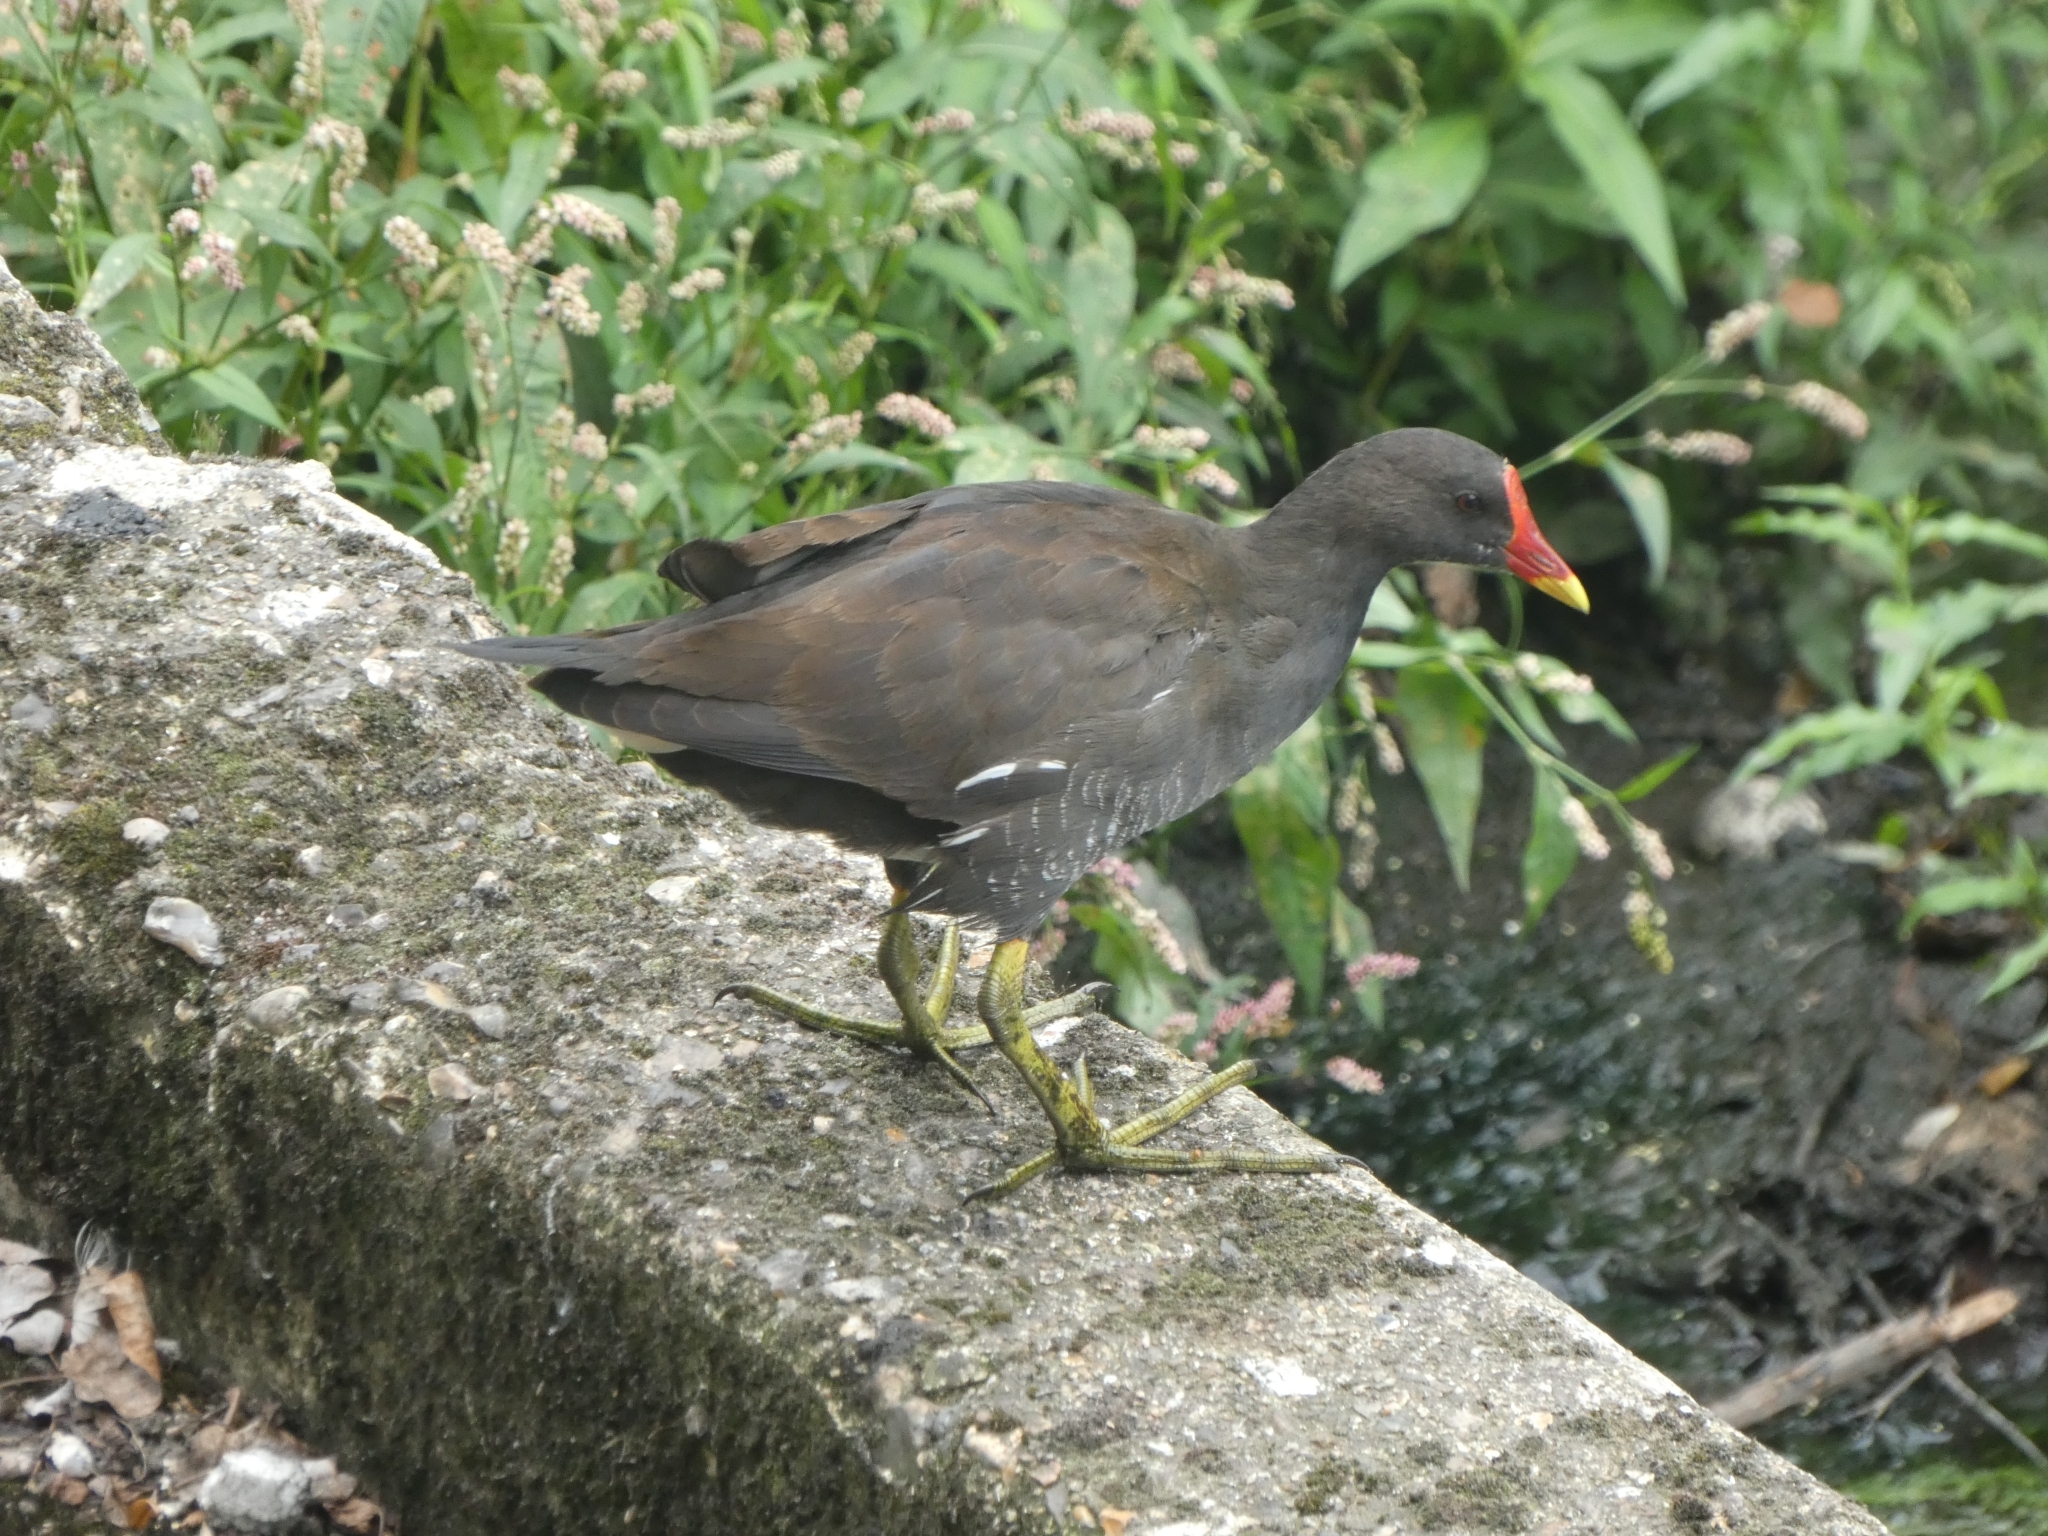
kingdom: Animalia
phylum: Chordata
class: Aves
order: Gruiformes
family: Rallidae
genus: Gallinula
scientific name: Gallinula chloropus
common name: Common moorhen
